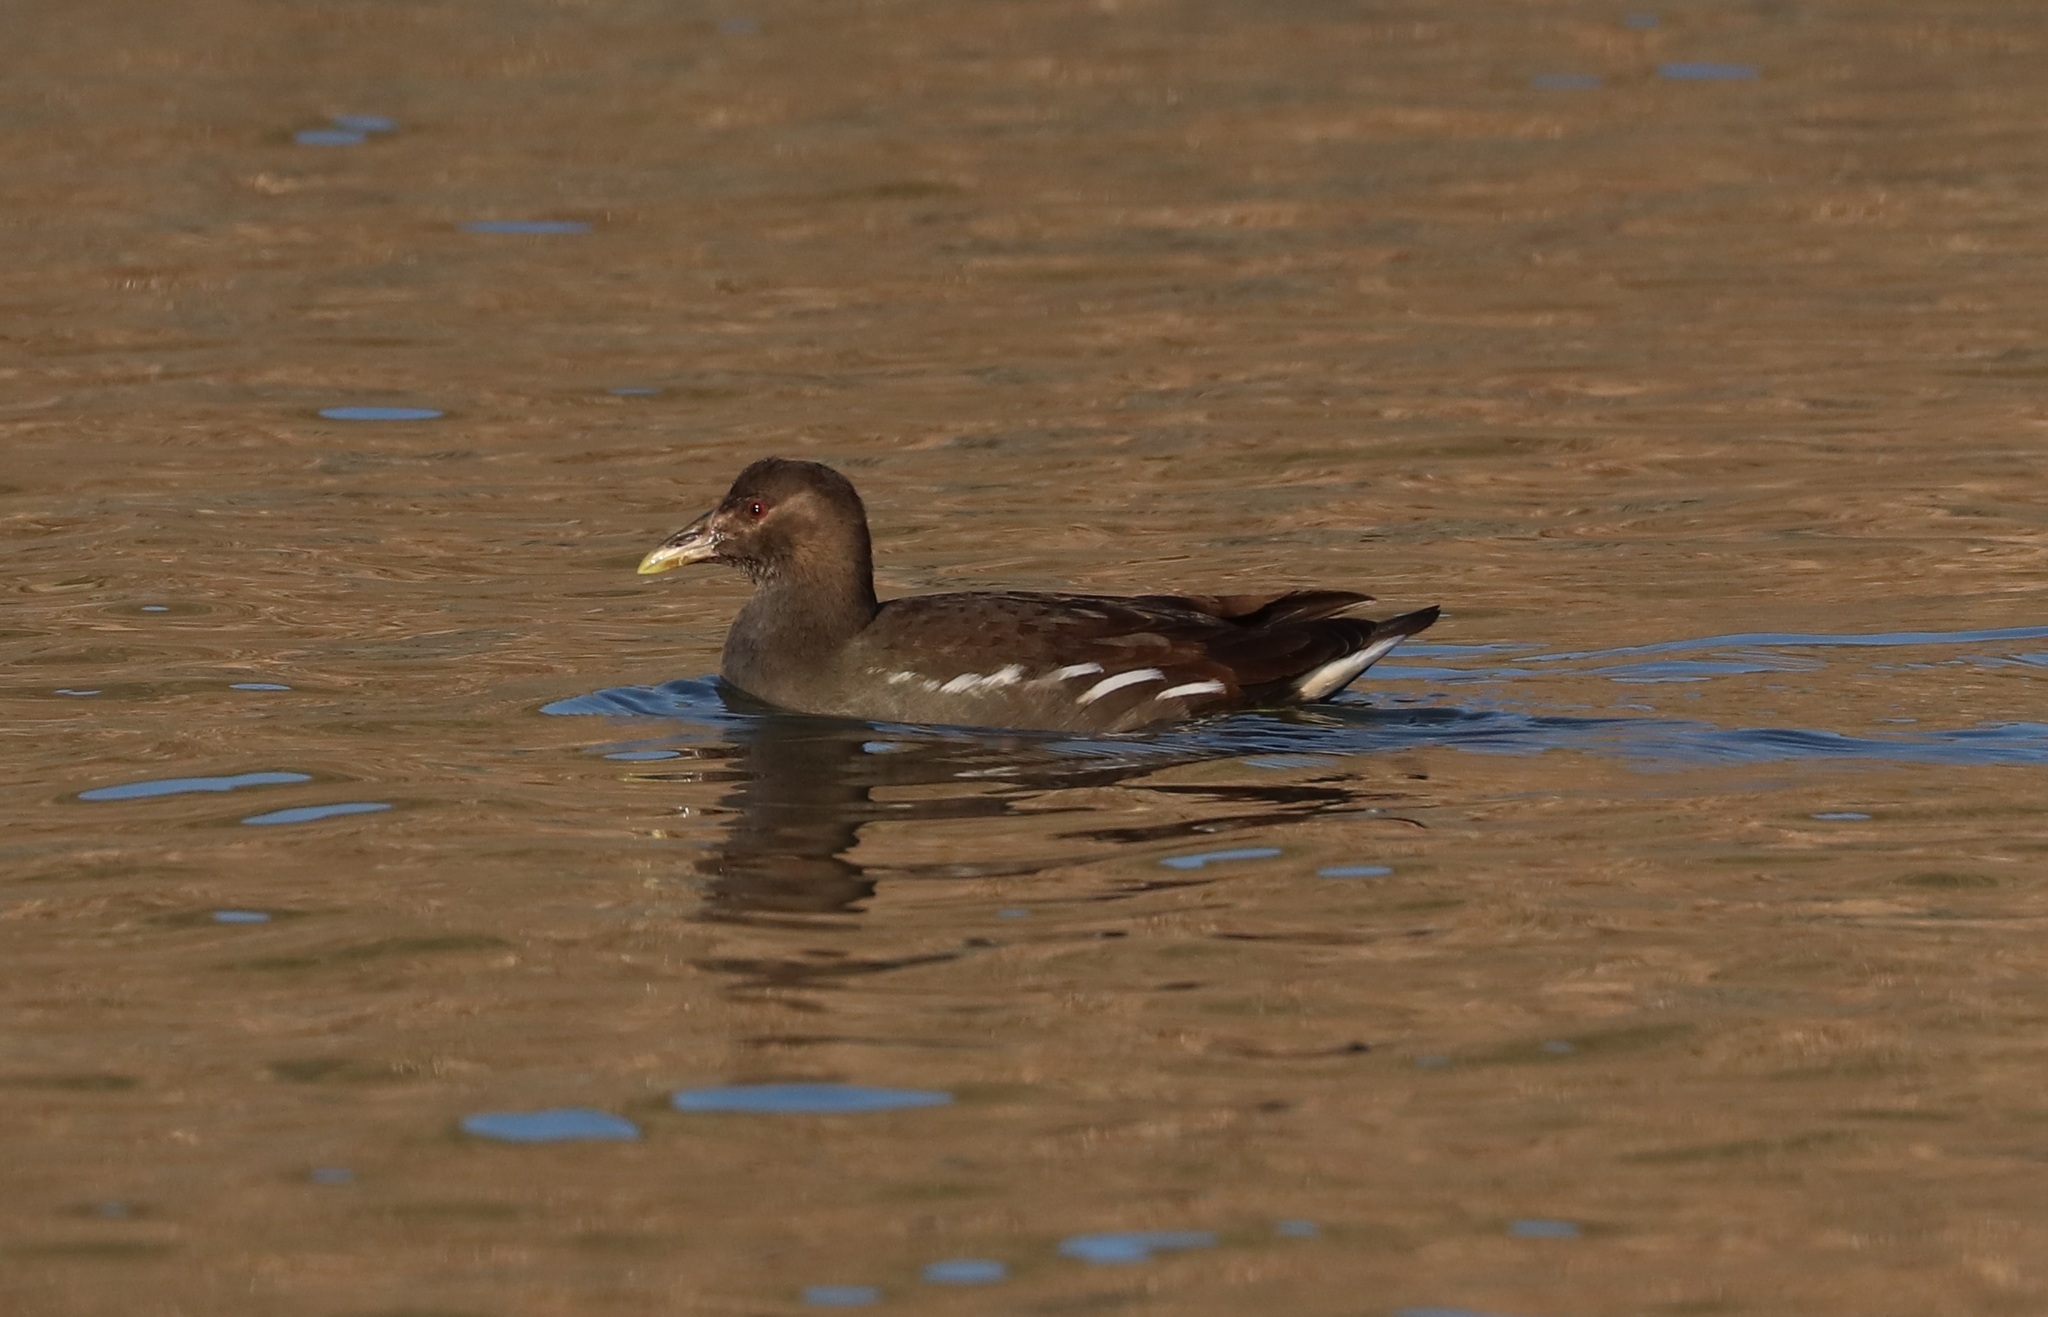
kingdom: Animalia
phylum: Chordata
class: Aves
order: Gruiformes
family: Rallidae
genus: Gallinula
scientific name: Gallinula chloropus
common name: Common moorhen
